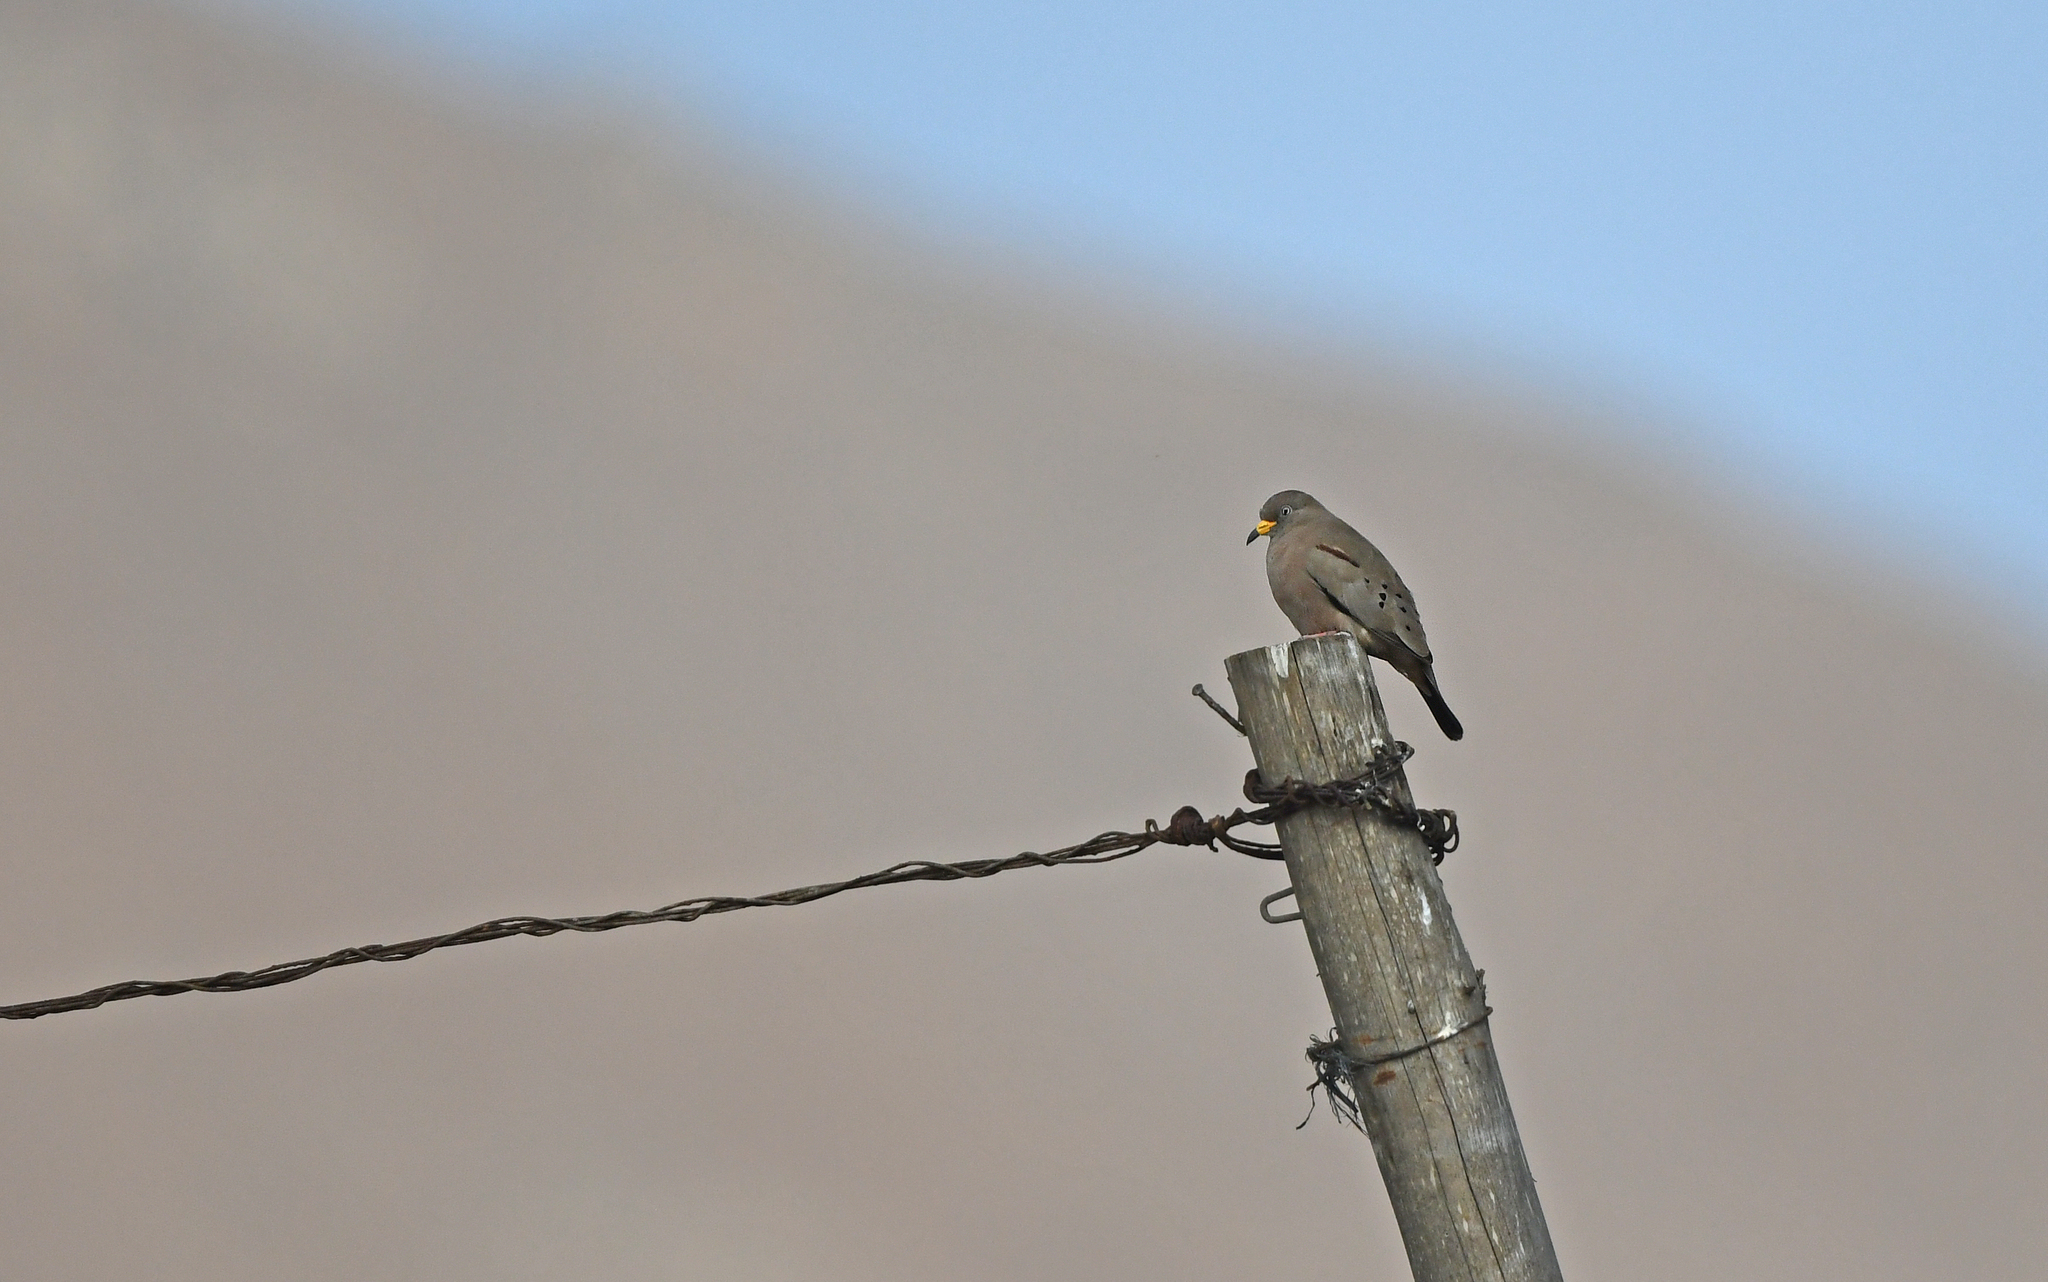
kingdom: Animalia
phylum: Chordata
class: Aves
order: Columbiformes
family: Columbidae
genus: Columbina
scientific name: Columbina cruziana
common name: Croaking ground dove
